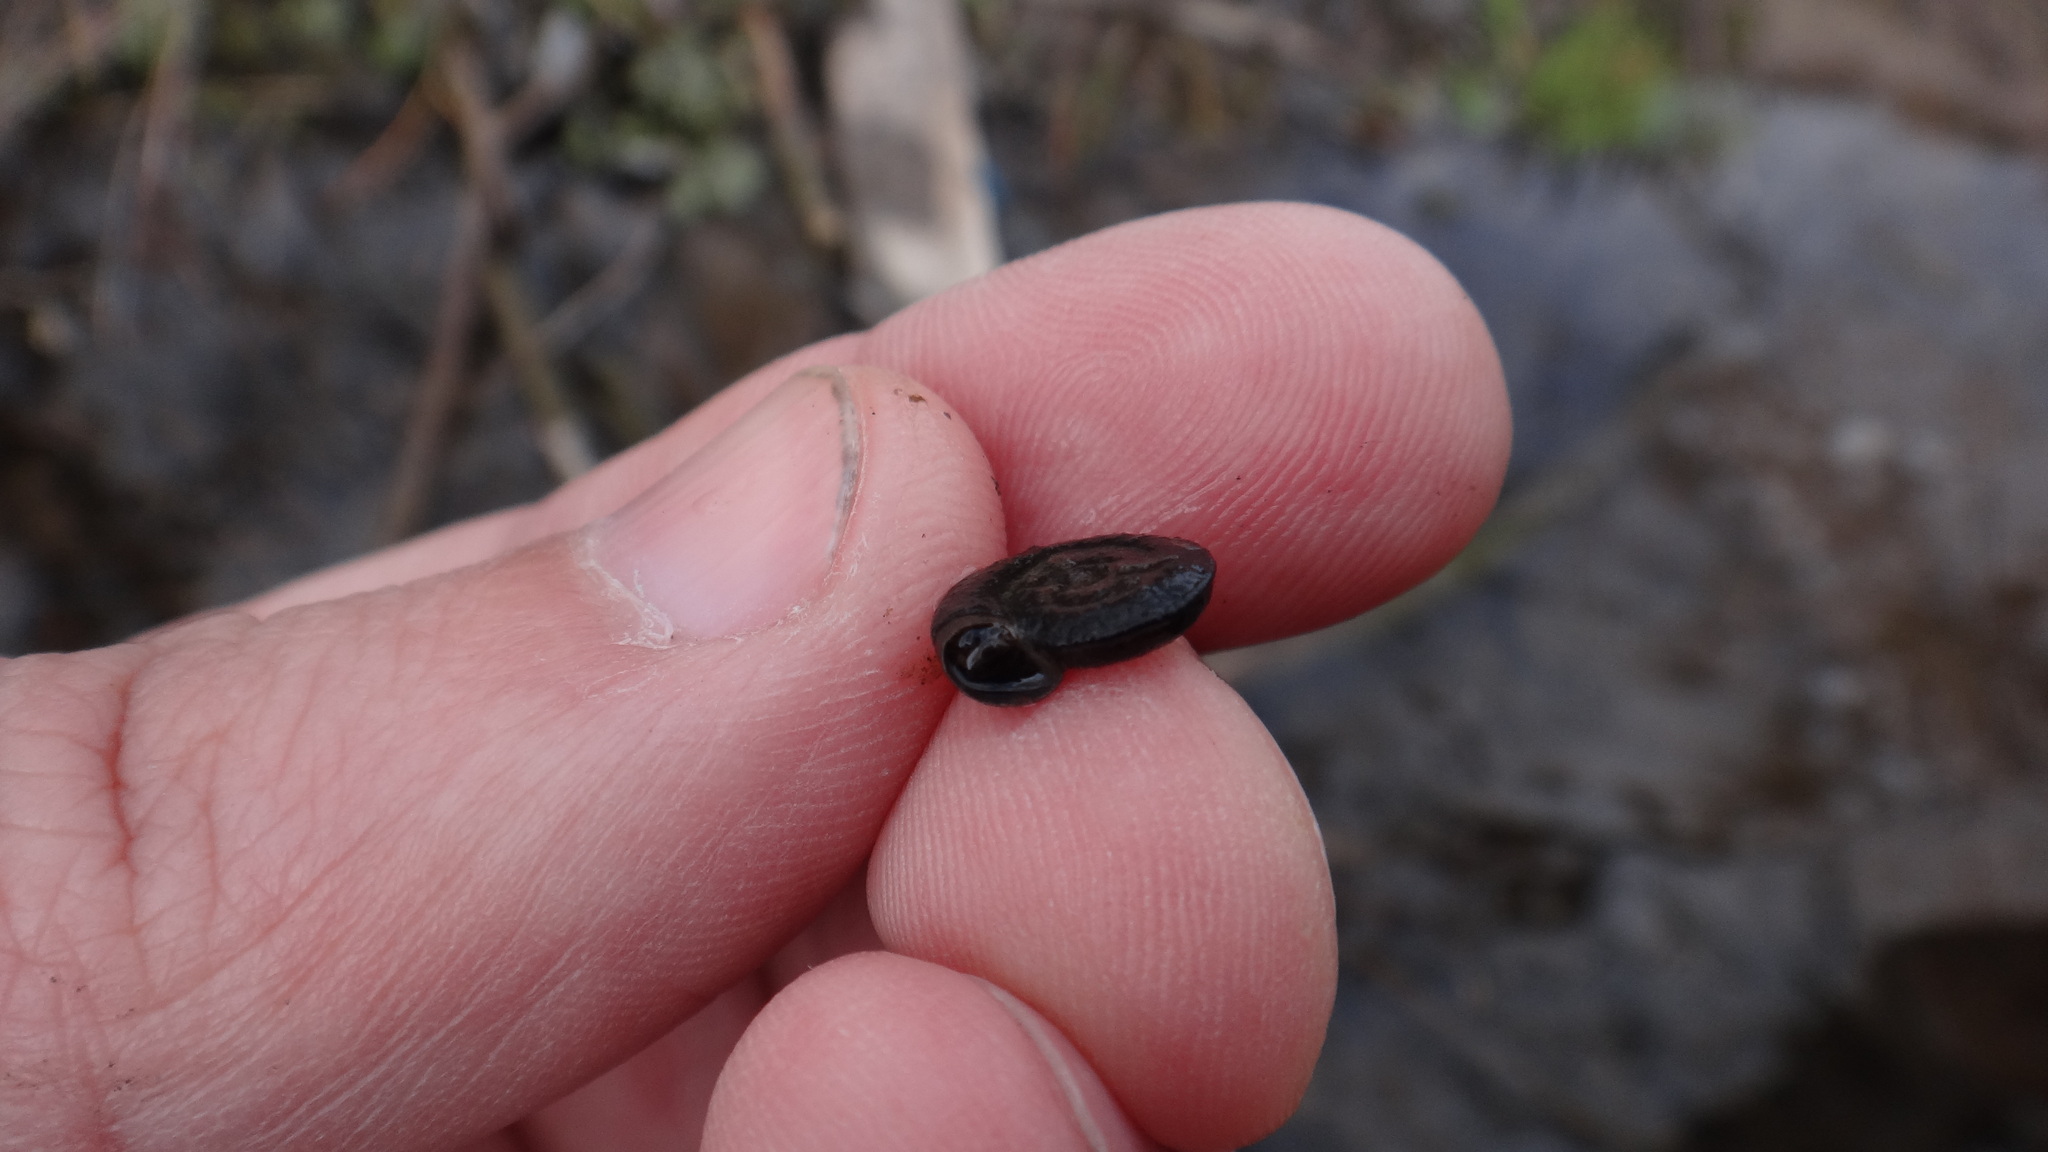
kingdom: Animalia
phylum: Mollusca
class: Gastropoda
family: Planorbidae
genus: Planorbis
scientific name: Planorbis planorbis
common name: Margined ramshorn
